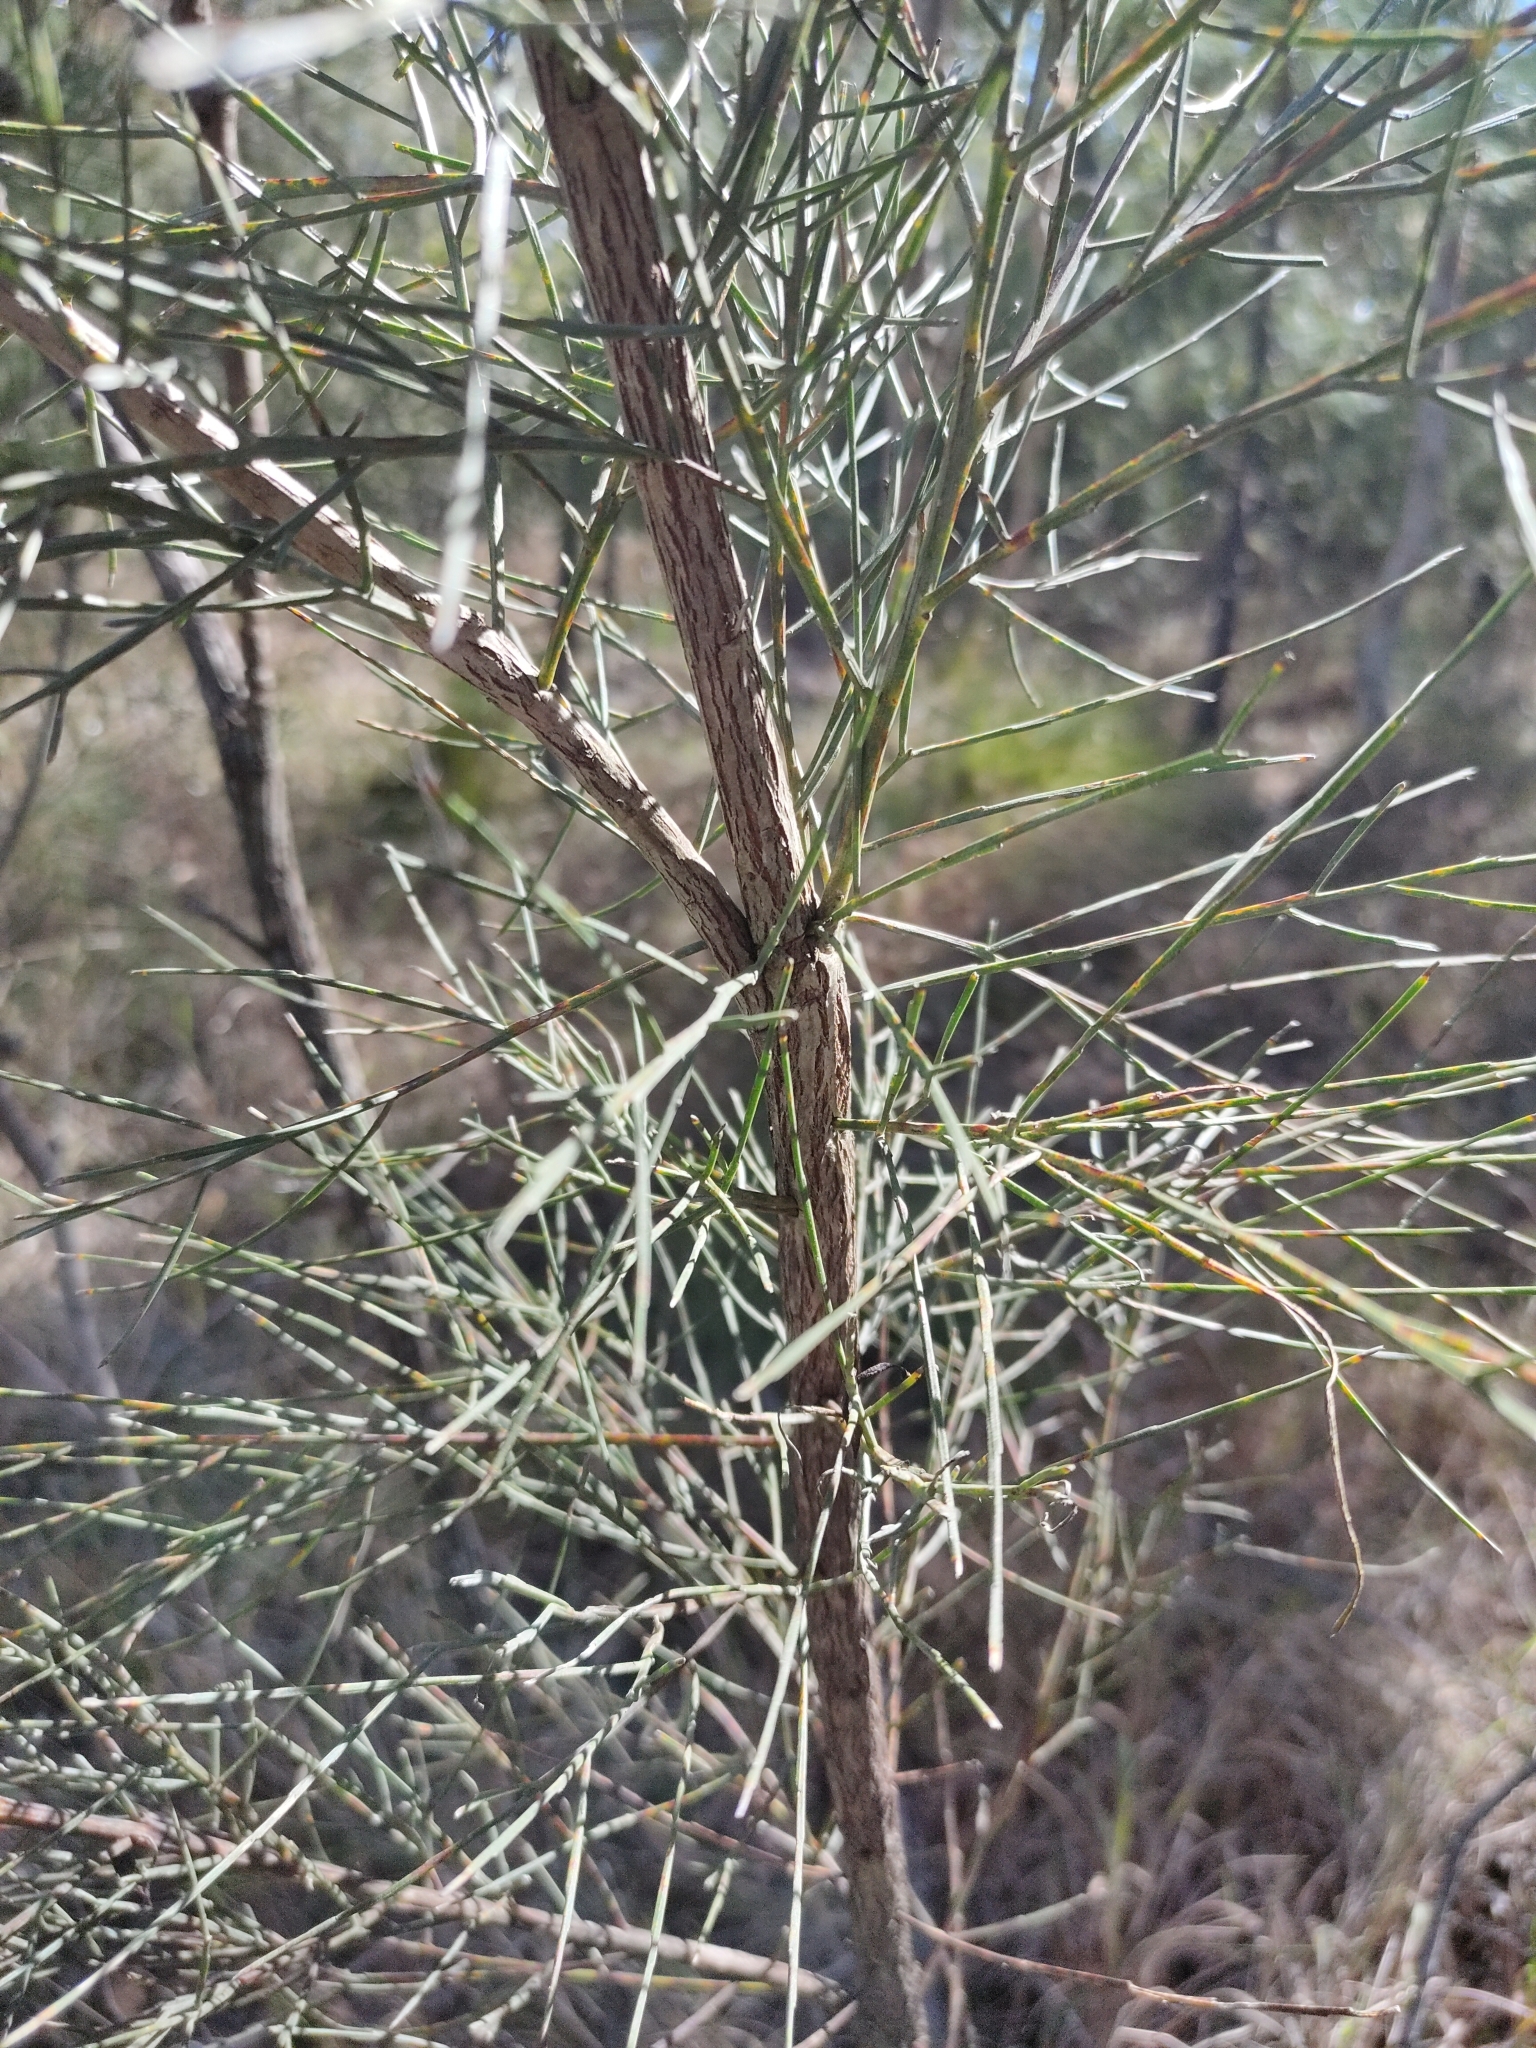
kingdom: Plantae
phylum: Tracheophyta
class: Magnoliopsida
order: Fabales
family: Fabaceae
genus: Jacksonia
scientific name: Jacksonia scoparia
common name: Dogwood
